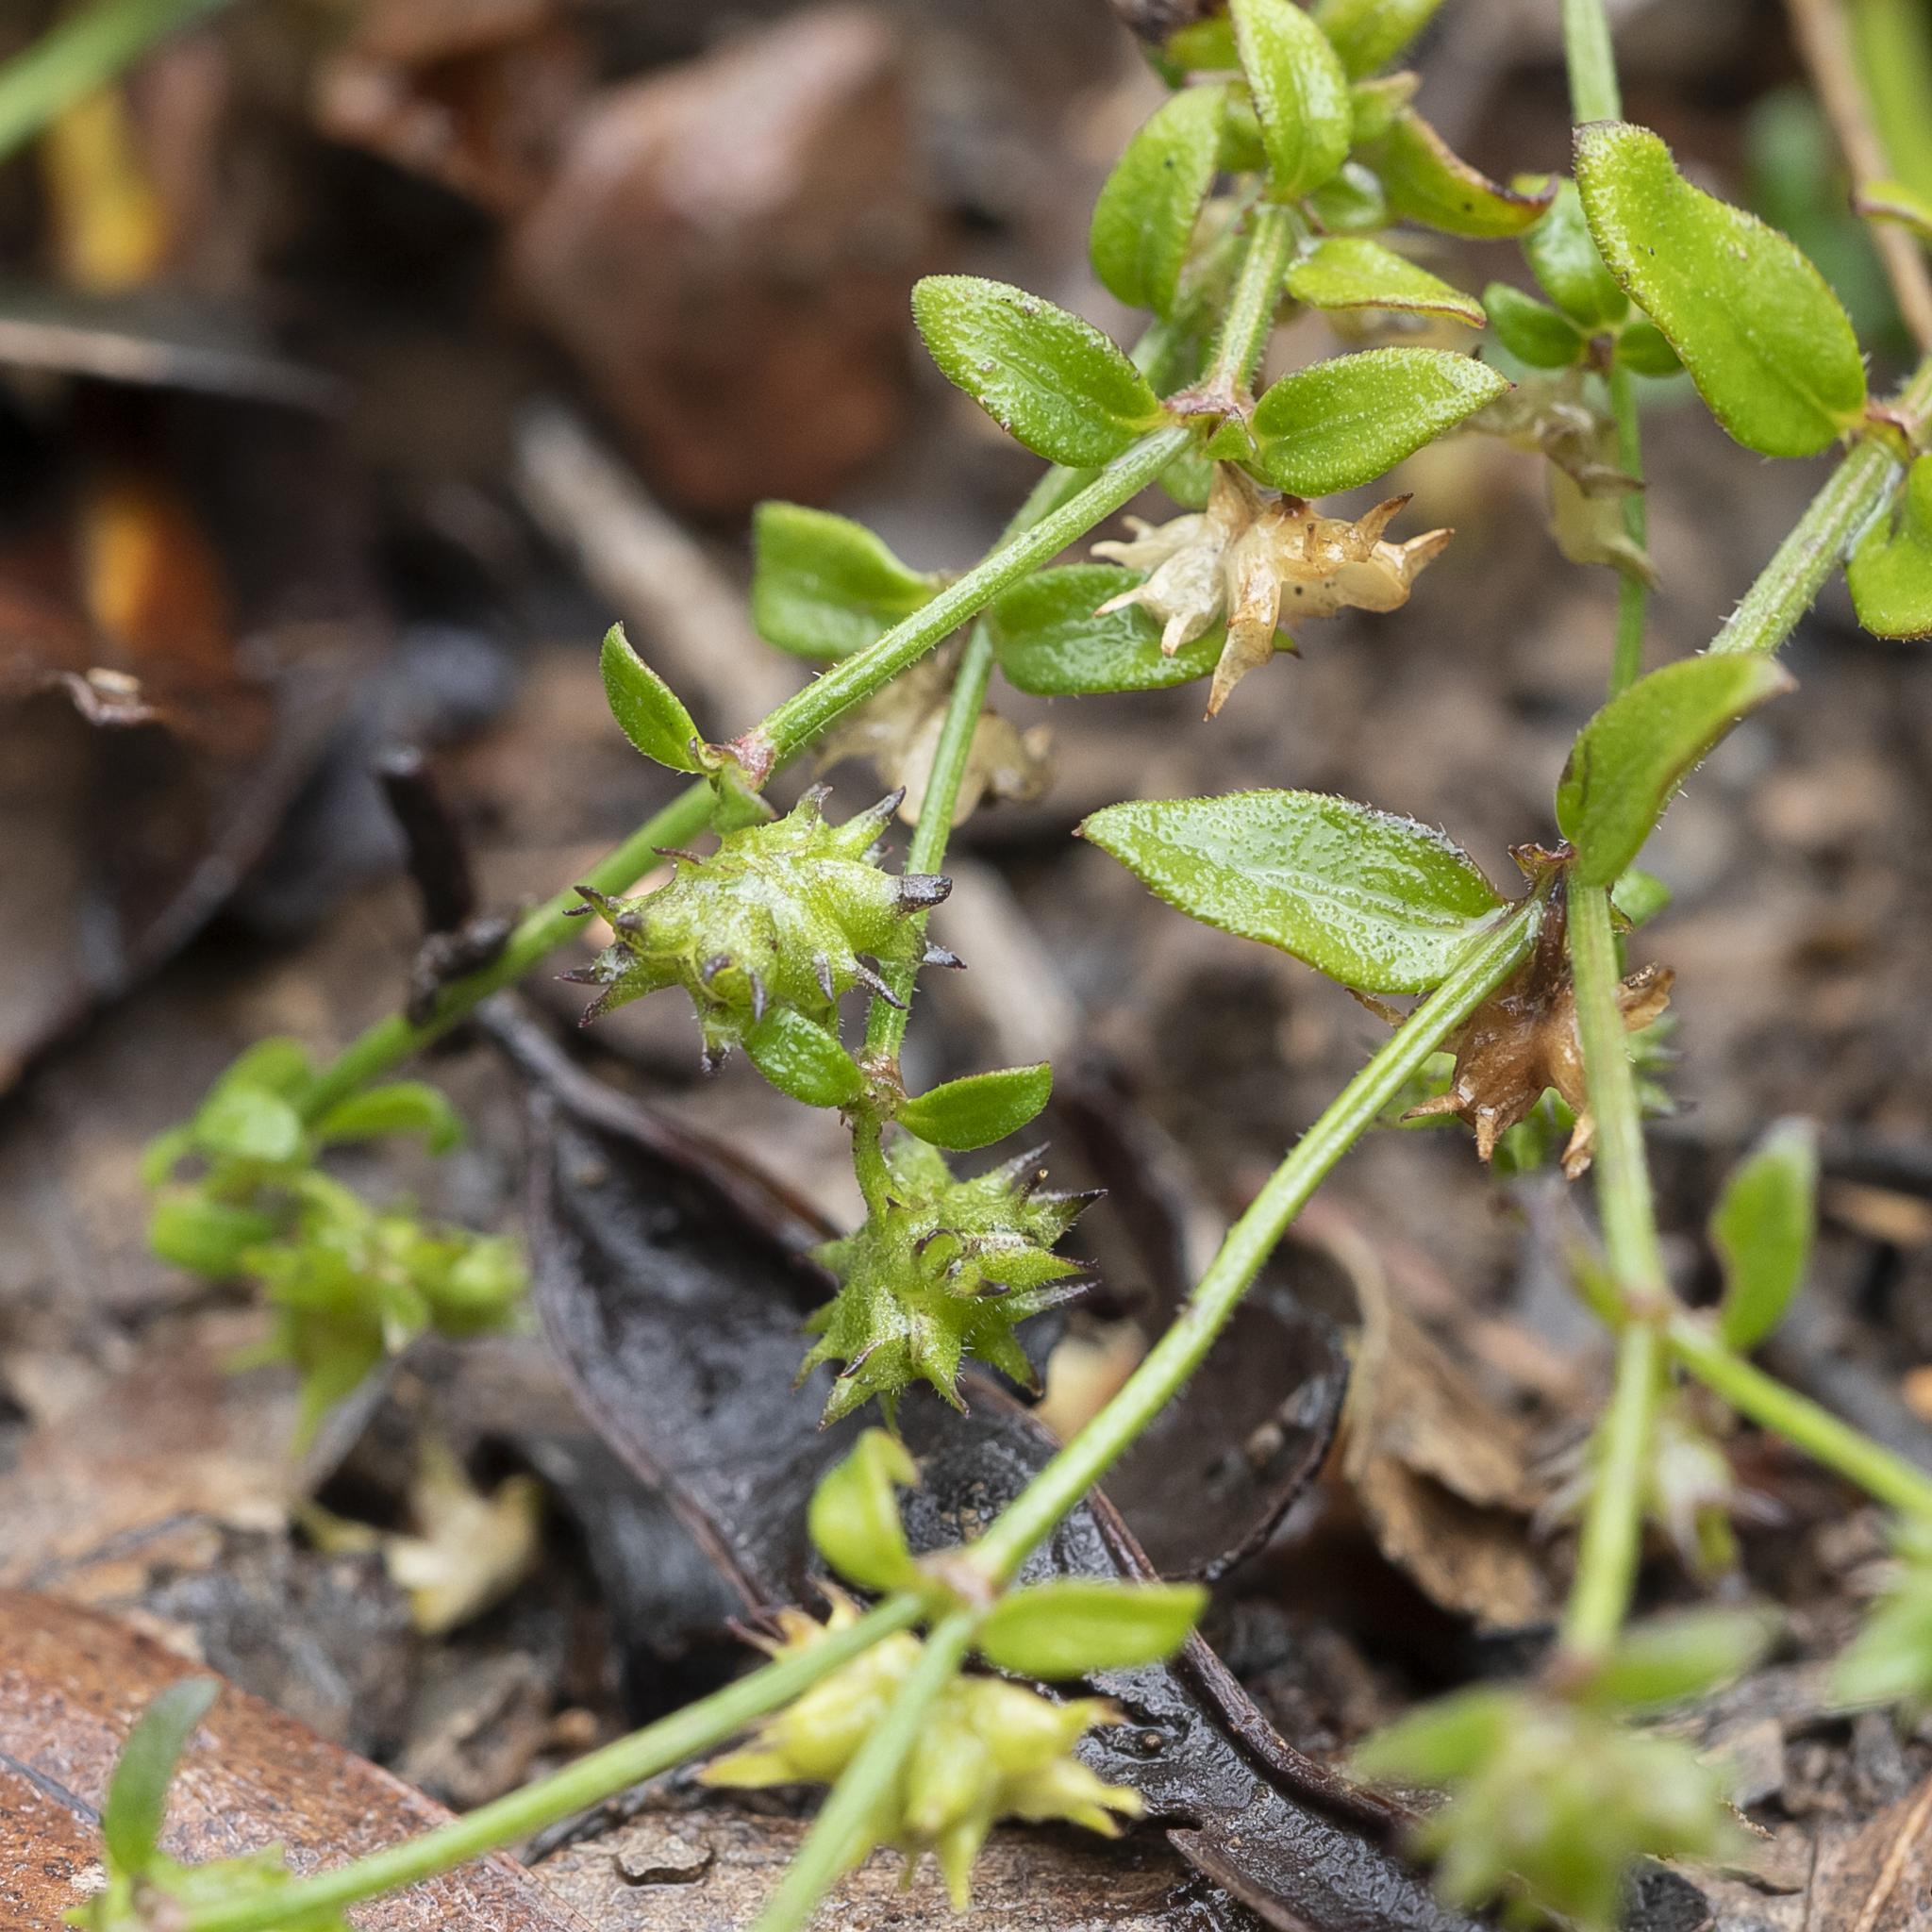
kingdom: Plantae
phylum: Tracheophyta
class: Magnoliopsida
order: Gentianales
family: Rubiaceae
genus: Opercularia
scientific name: Opercularia varia
